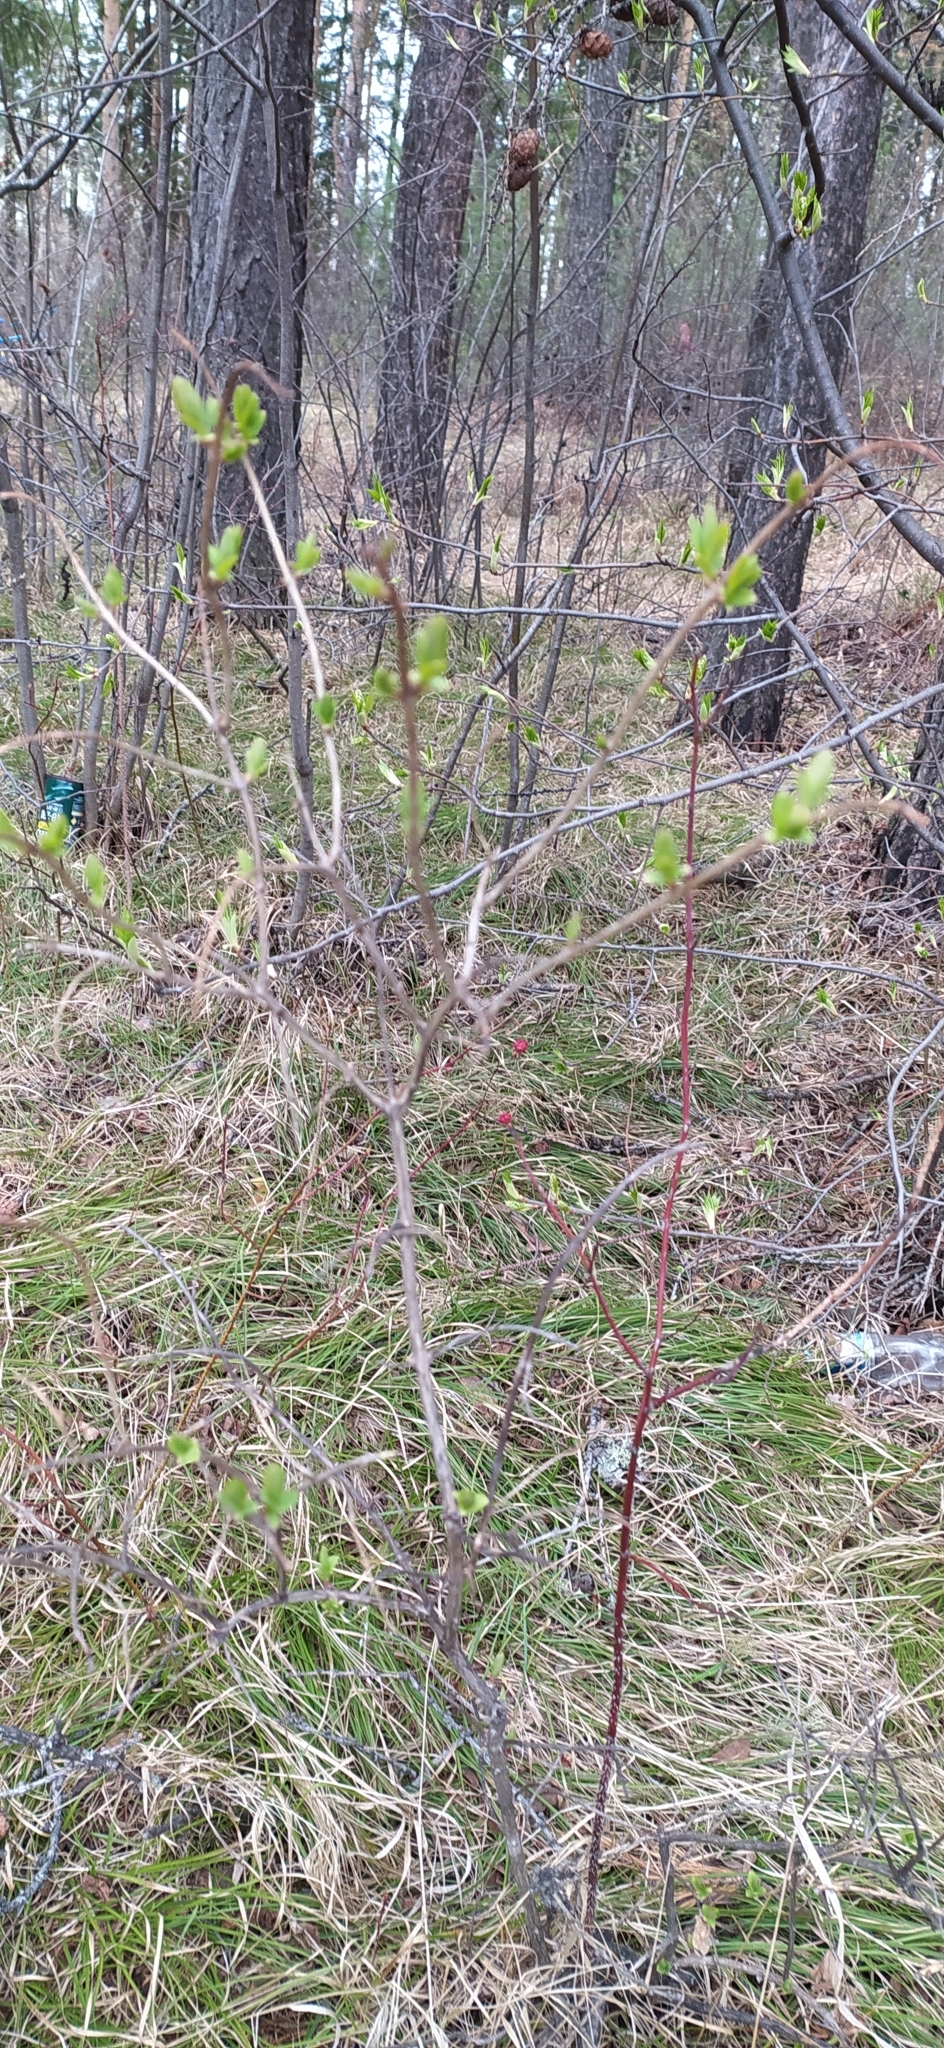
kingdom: Plantae
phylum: Tracheophyta
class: Magnoliopsida
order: Dipsacales
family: Caprifoliaceae
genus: Lonicera
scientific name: Lonicera tatarica
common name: Tatarian honeysuckle
